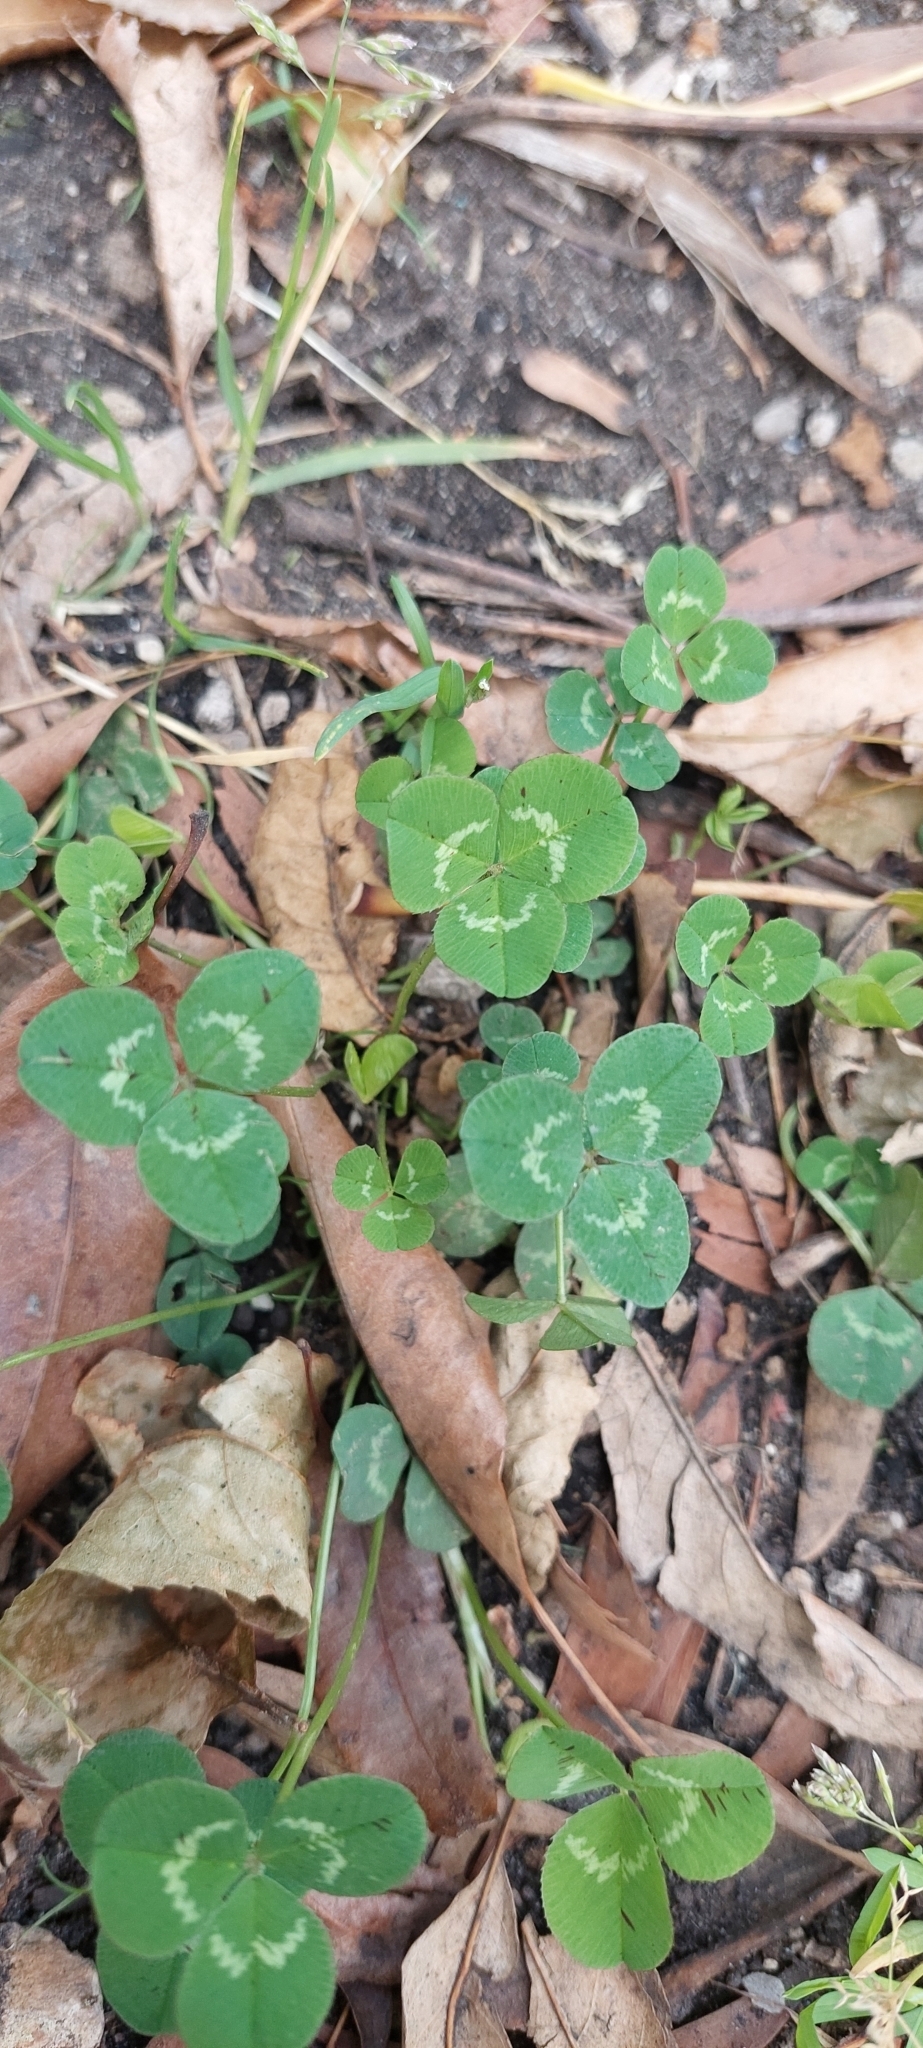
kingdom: Plantae
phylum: Tracheophyta
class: Magnoliopsida
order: Fabales
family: Fabaceae
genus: Trifolium
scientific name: Trifolium repens
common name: White clover
